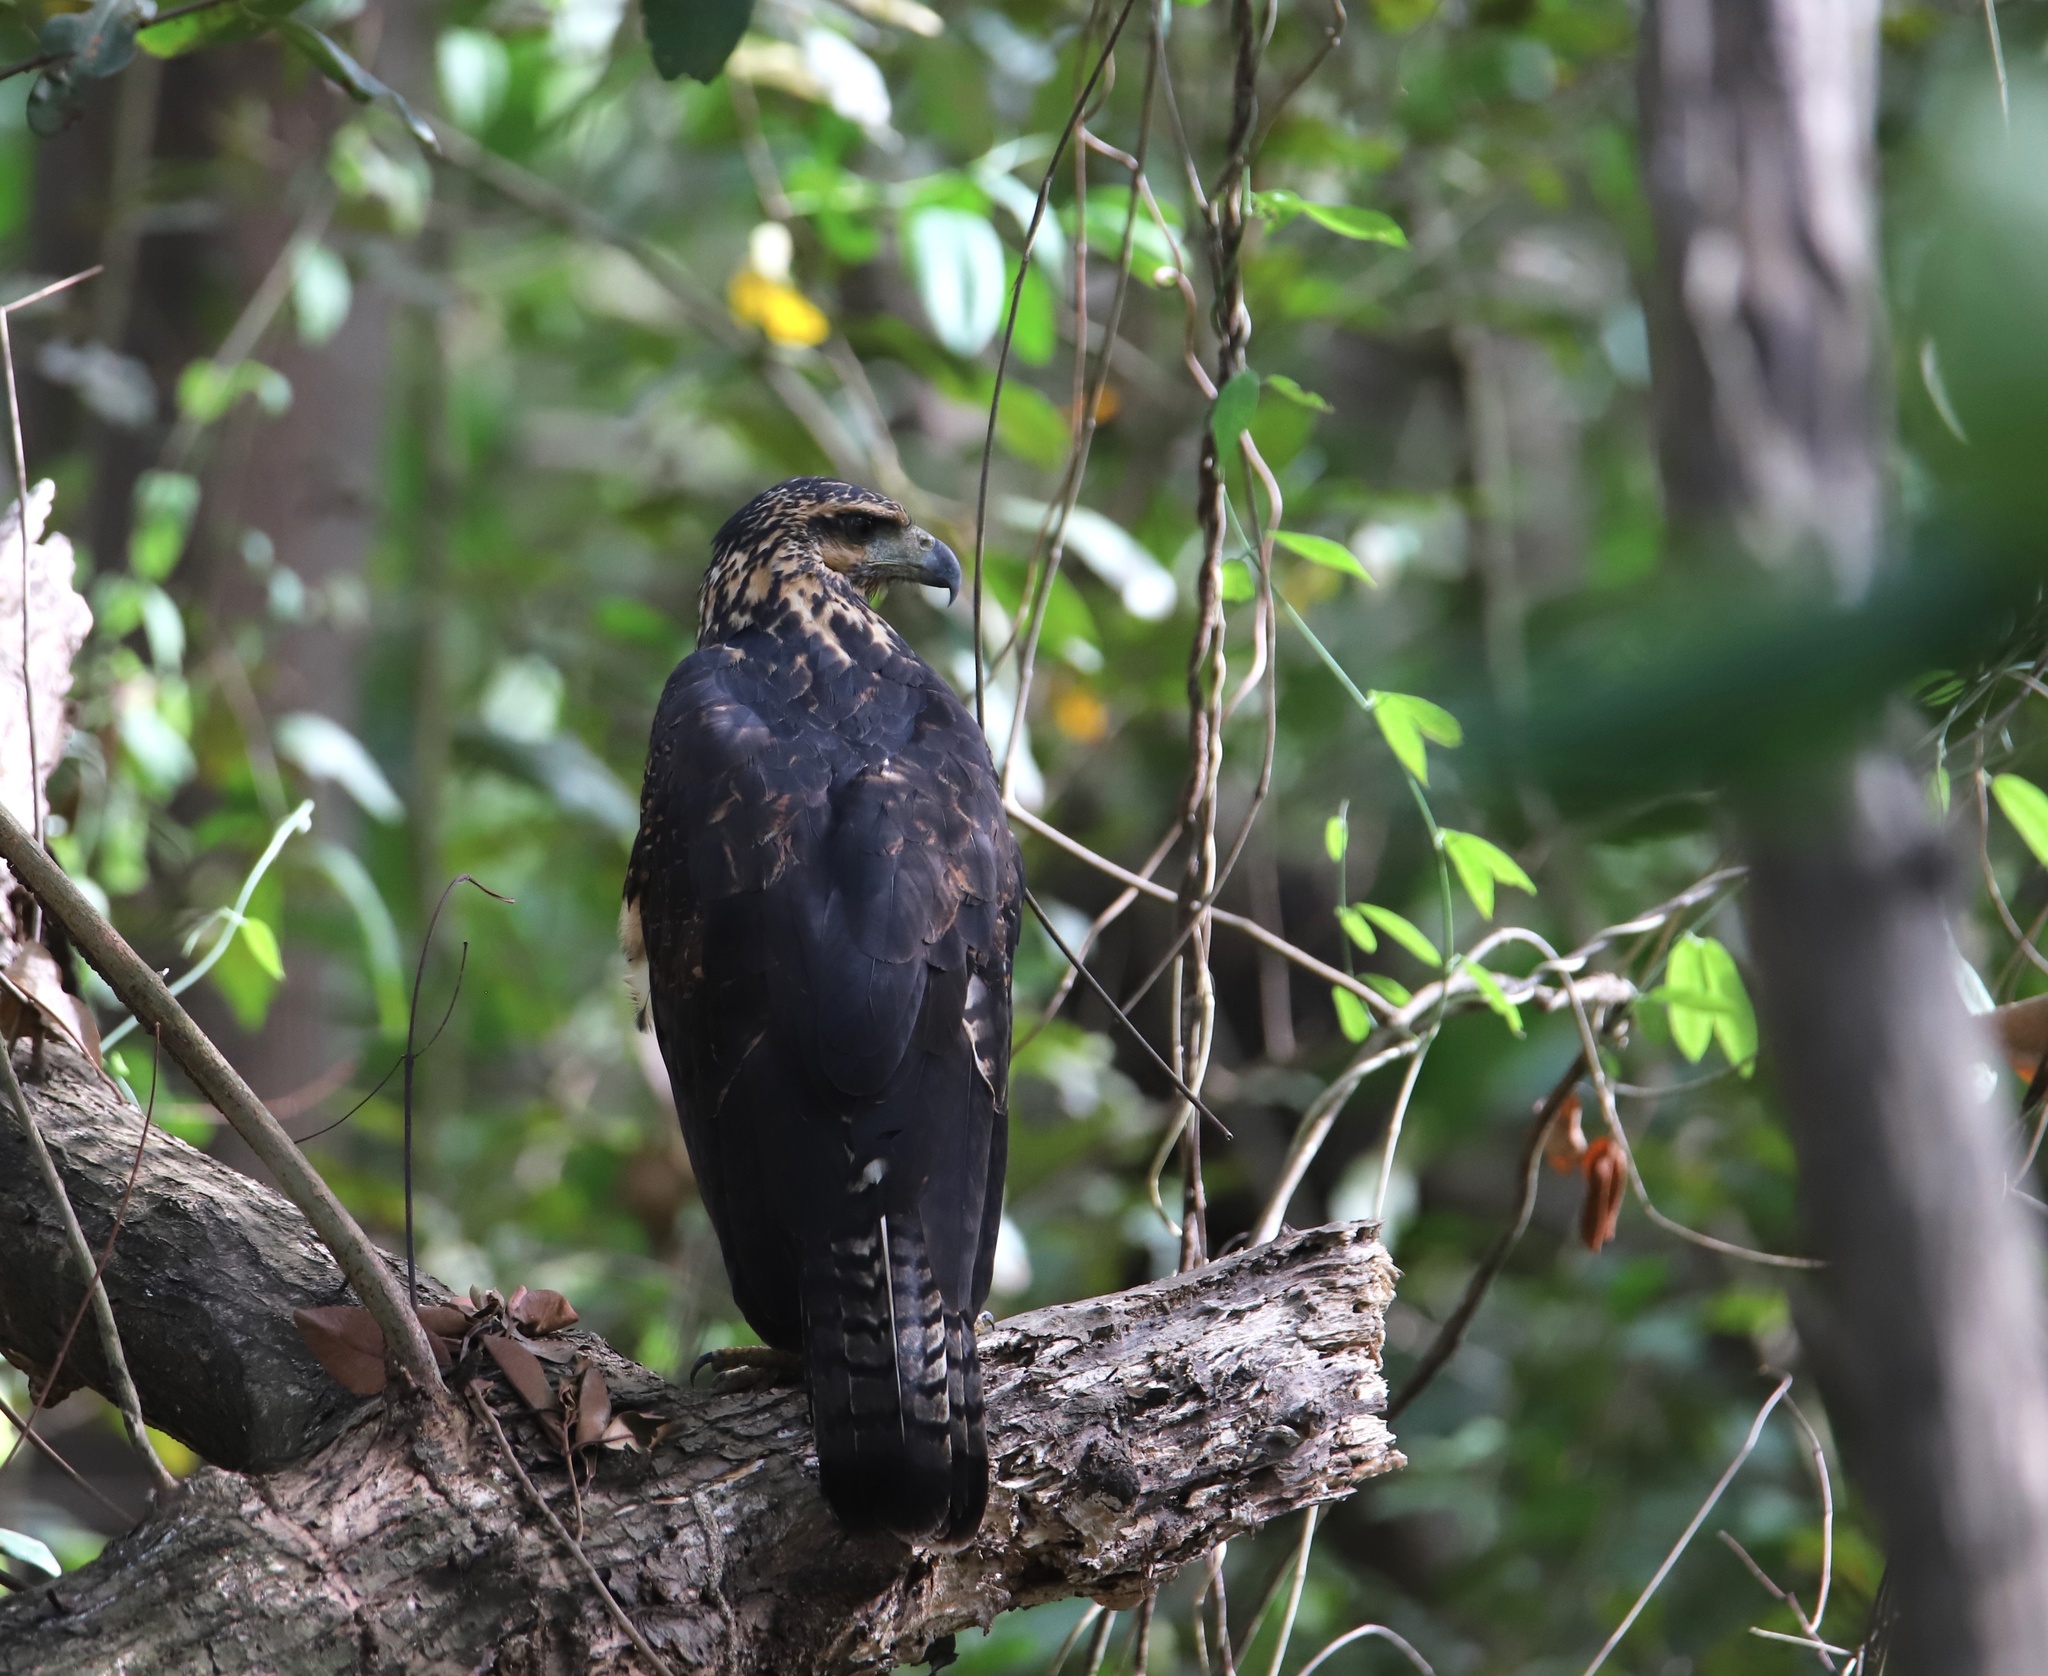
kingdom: Animalia
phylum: Chordata
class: Aves
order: Accipitriformes
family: Accipitridae
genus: Buteogallus
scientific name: Buteogallus urubitinga
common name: Great black hawk
